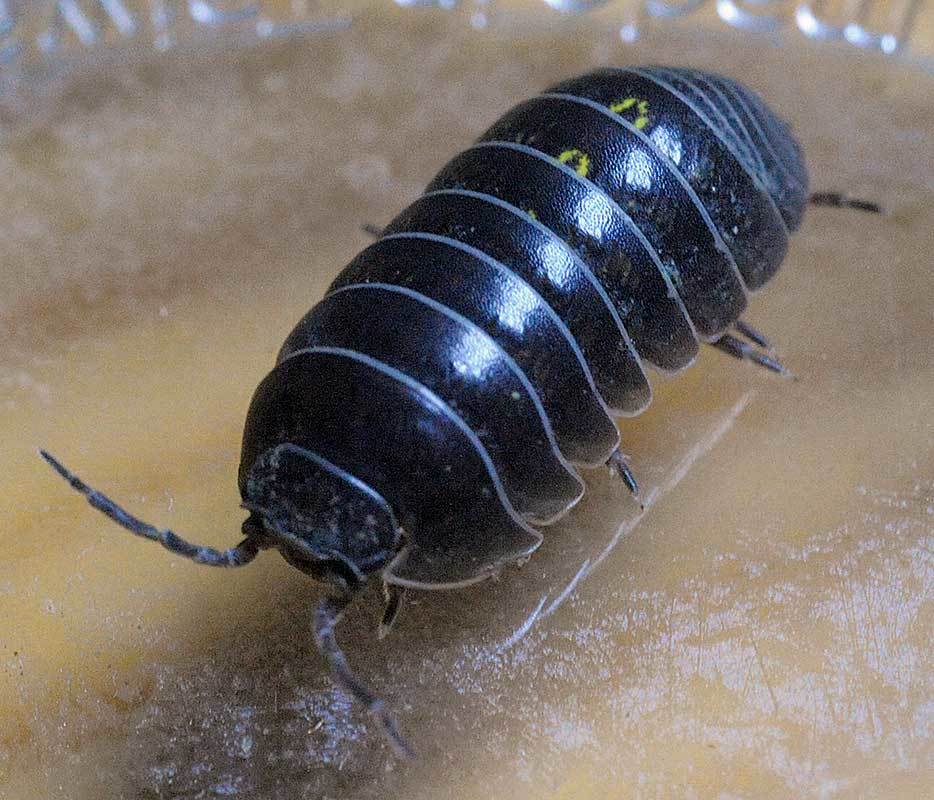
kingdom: Animalia
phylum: Arthropoda
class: Malacostraca
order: Isopoda
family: Armadillidiidae
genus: Armadillidium
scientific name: Armadillidium vulgare
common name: Common pill woodlouse
